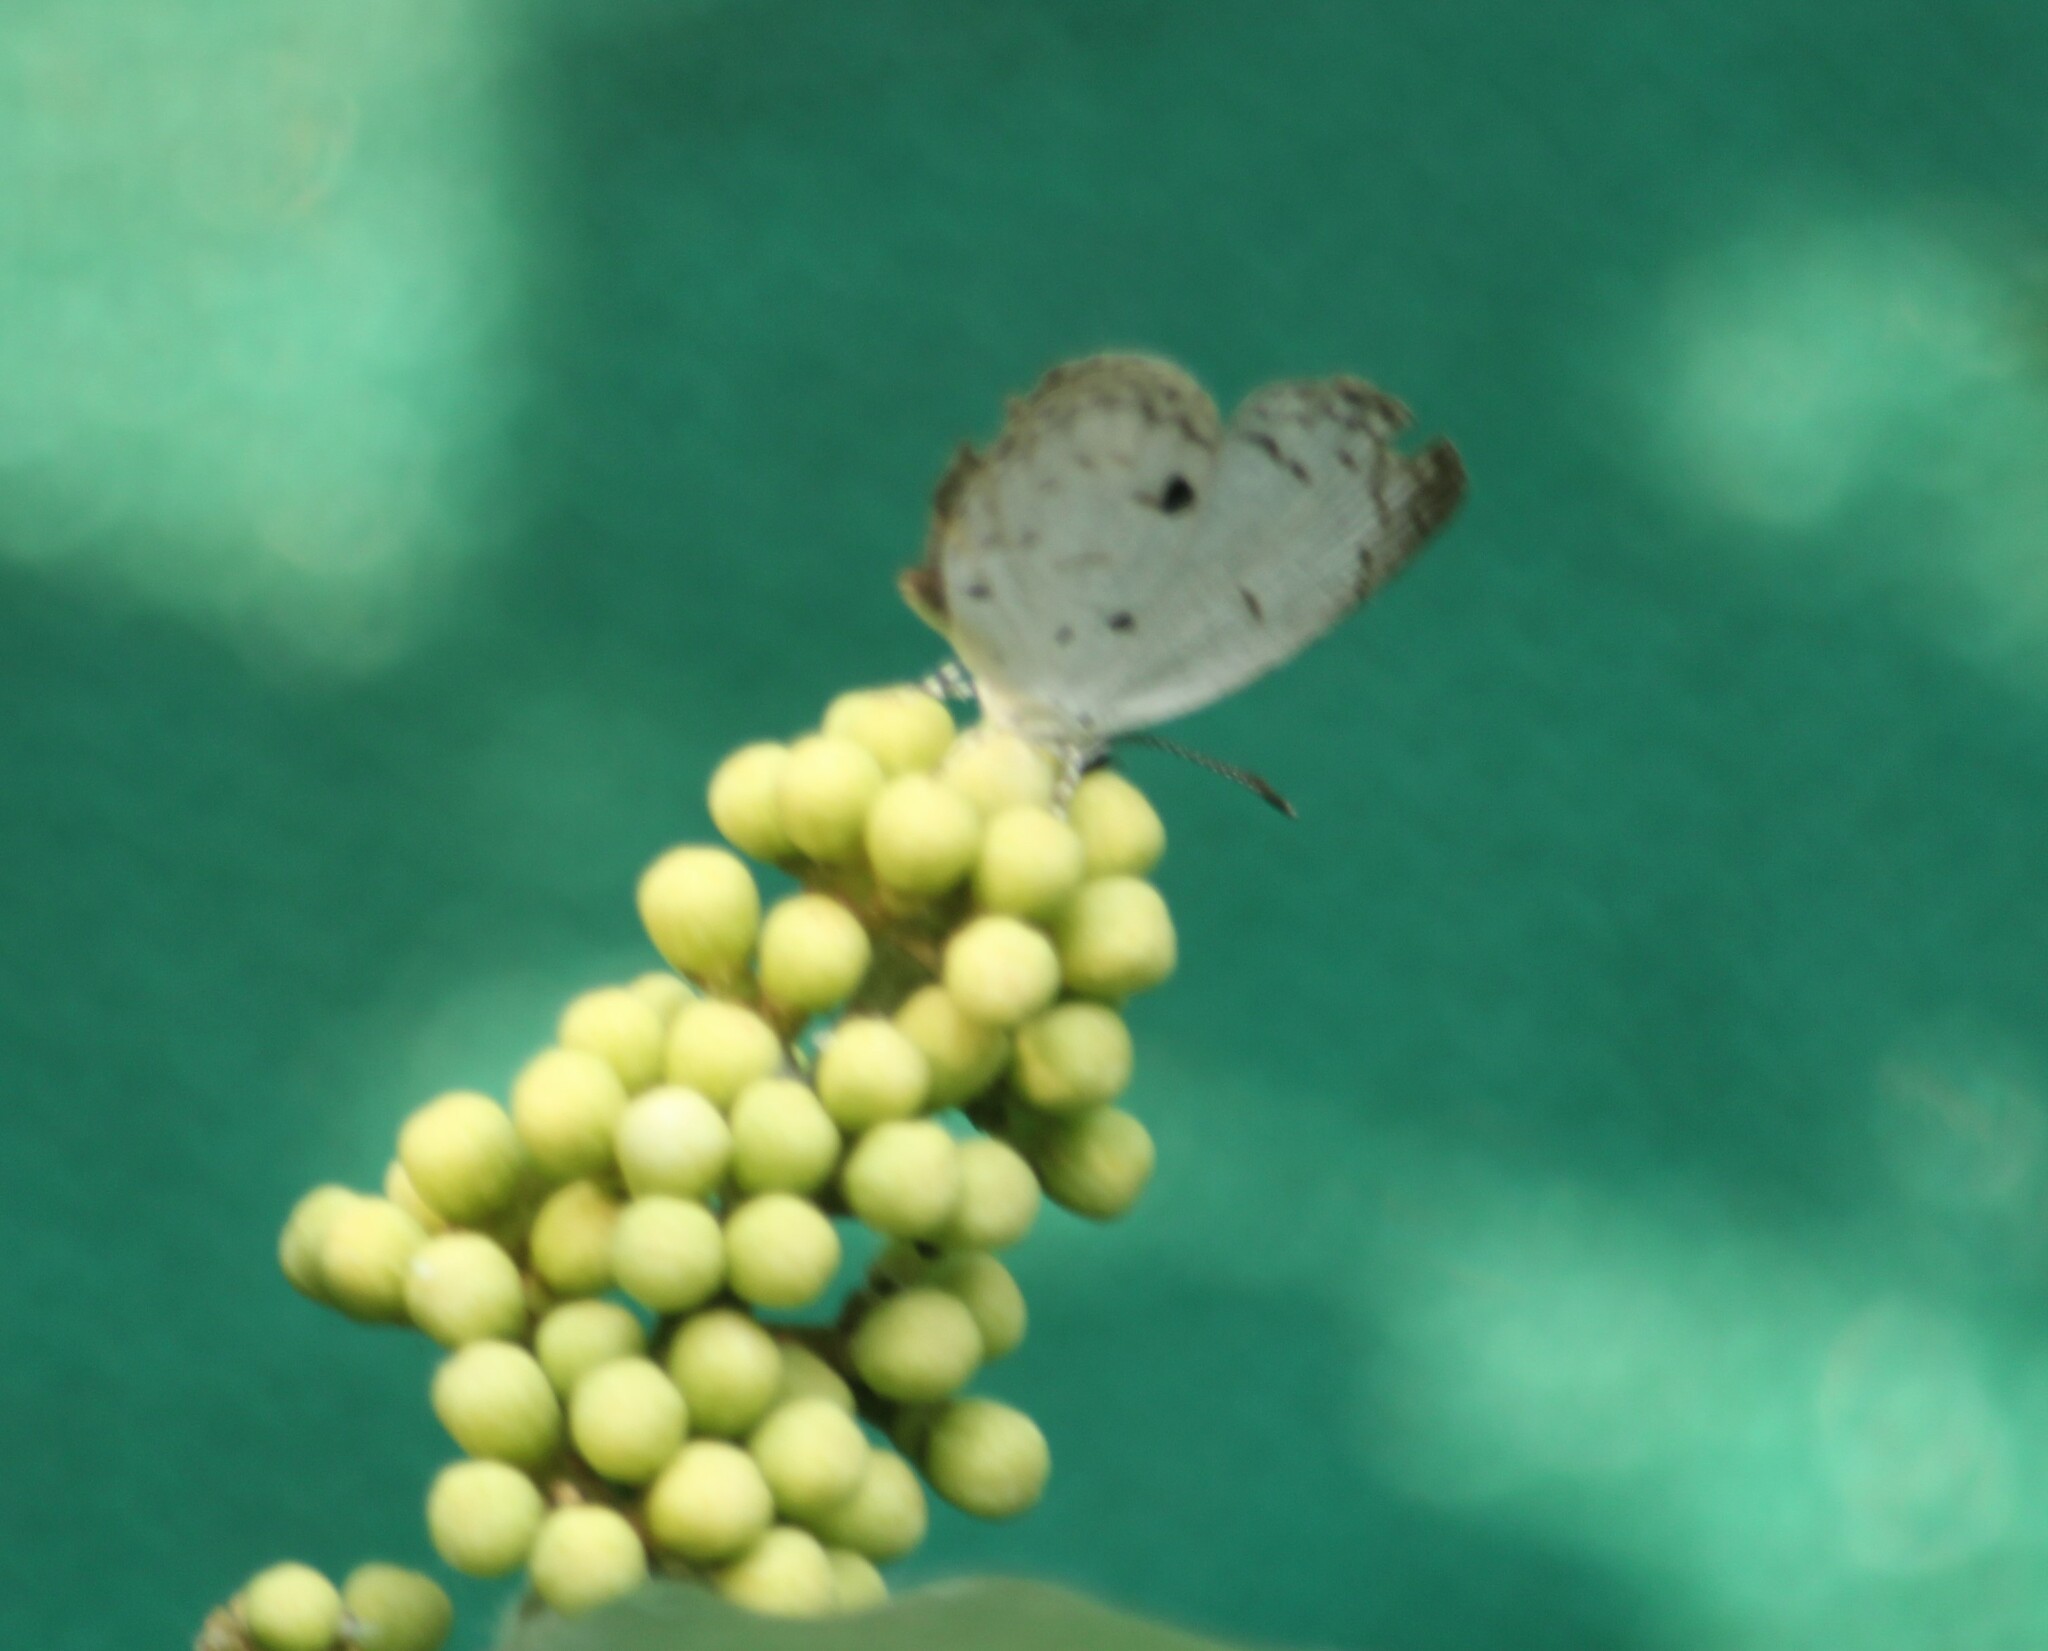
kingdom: Animalia
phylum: Arthropoda
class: Insecta
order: Lepidoptera
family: Lycaenidae
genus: Neopithecops
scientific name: Neopithecops zalmora
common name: Quaker
